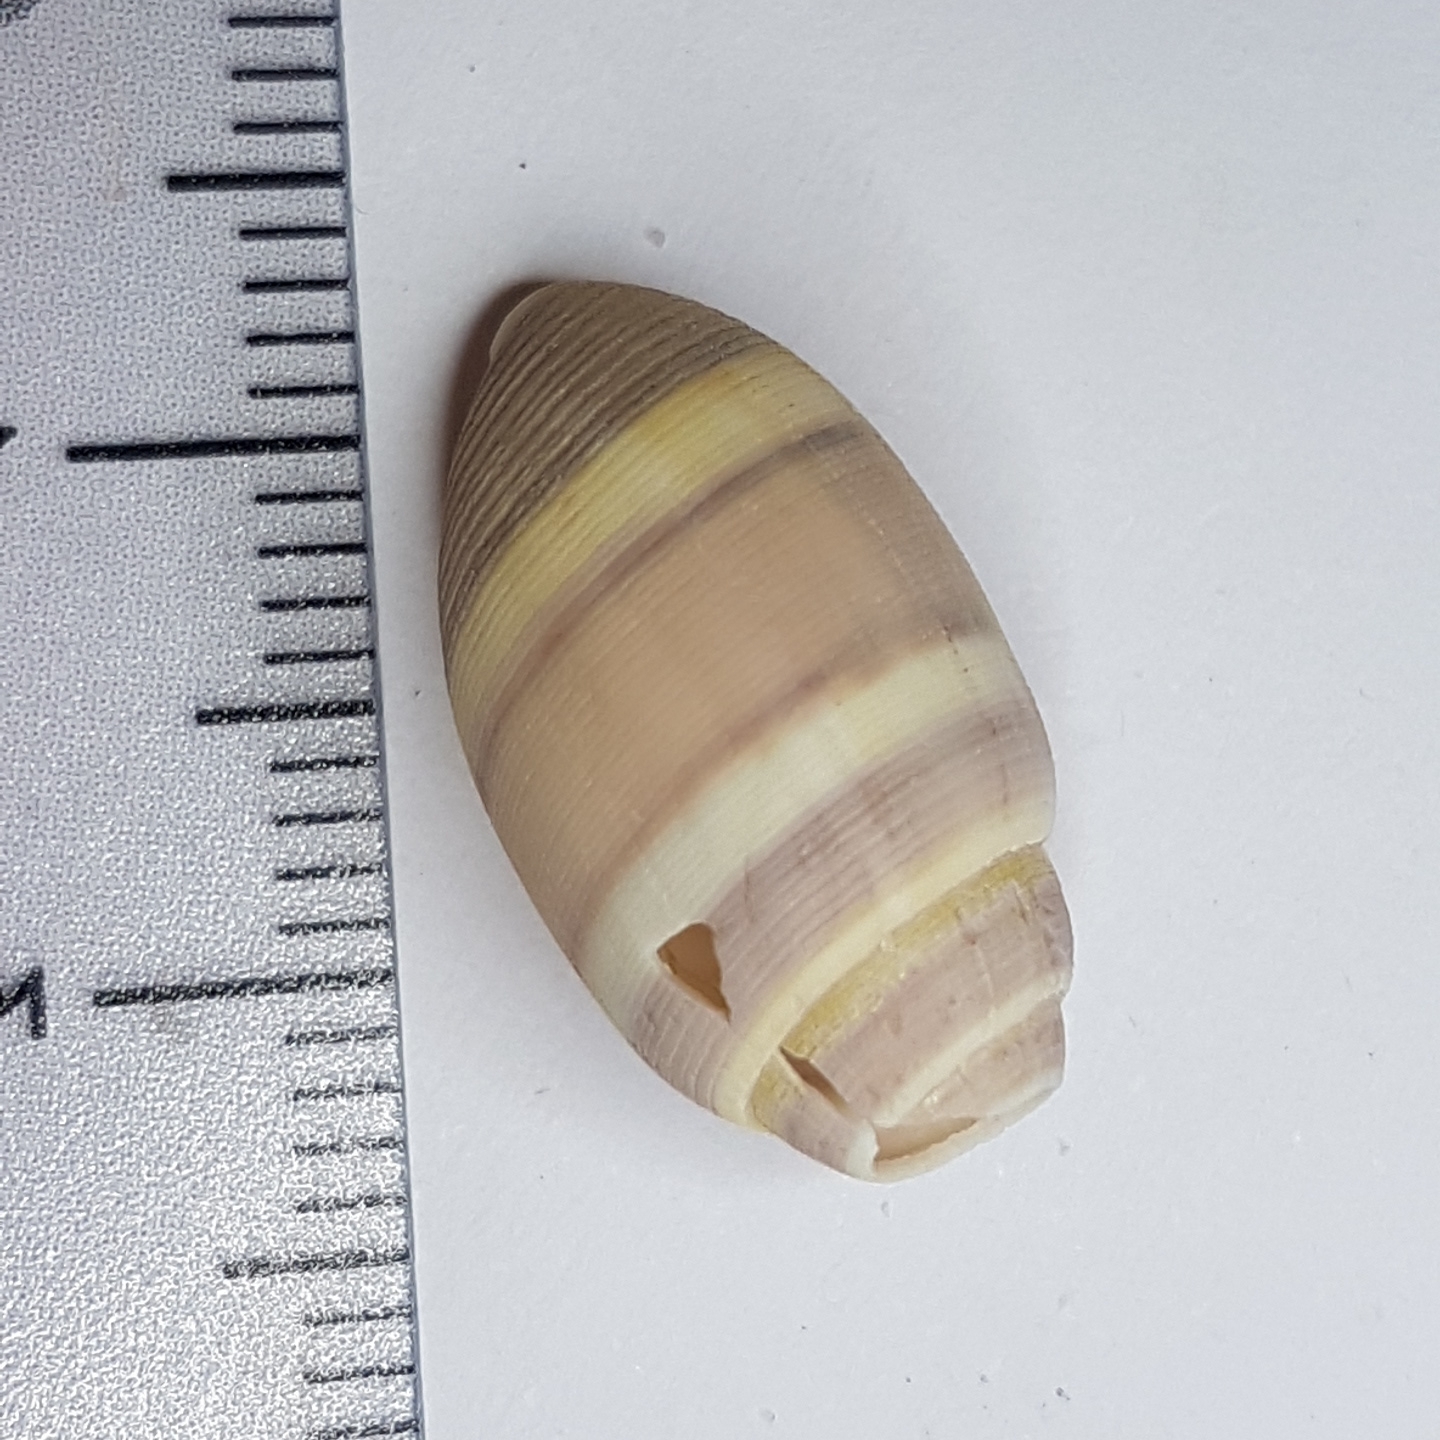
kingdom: Animalia
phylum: Mollusca
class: Gastropoda
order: Cephalaspidea
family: Acteonidae
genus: Acteon
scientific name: Acteon tornatilis
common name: European acteon
